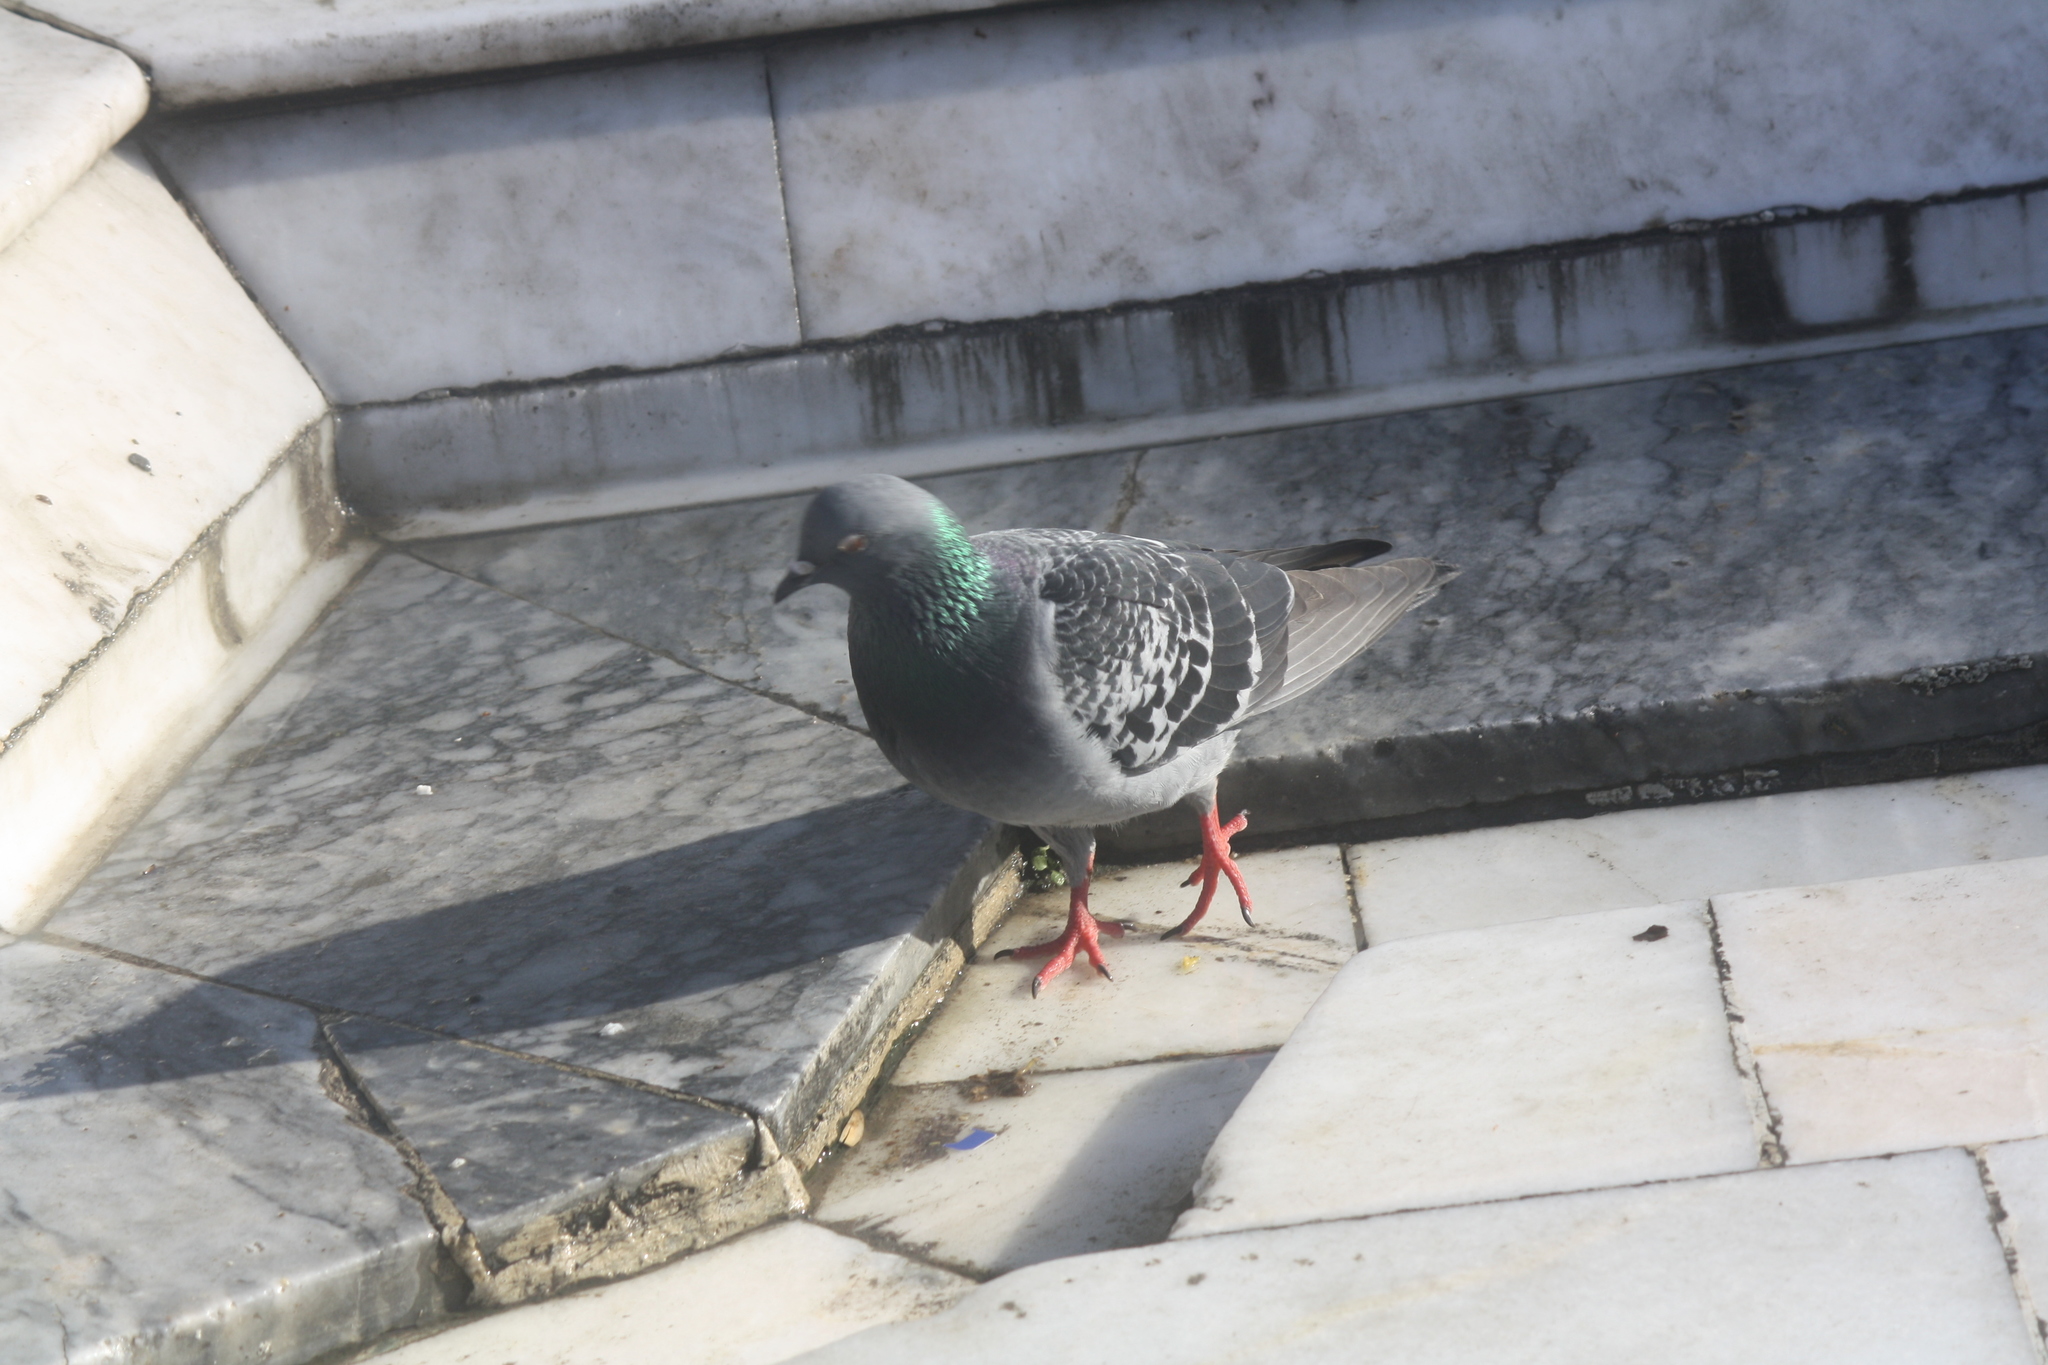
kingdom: Animalia
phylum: Chordata
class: Aves
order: Columbiformes
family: Columbidae
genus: Columba
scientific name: Columba livia
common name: Rock pigeon
